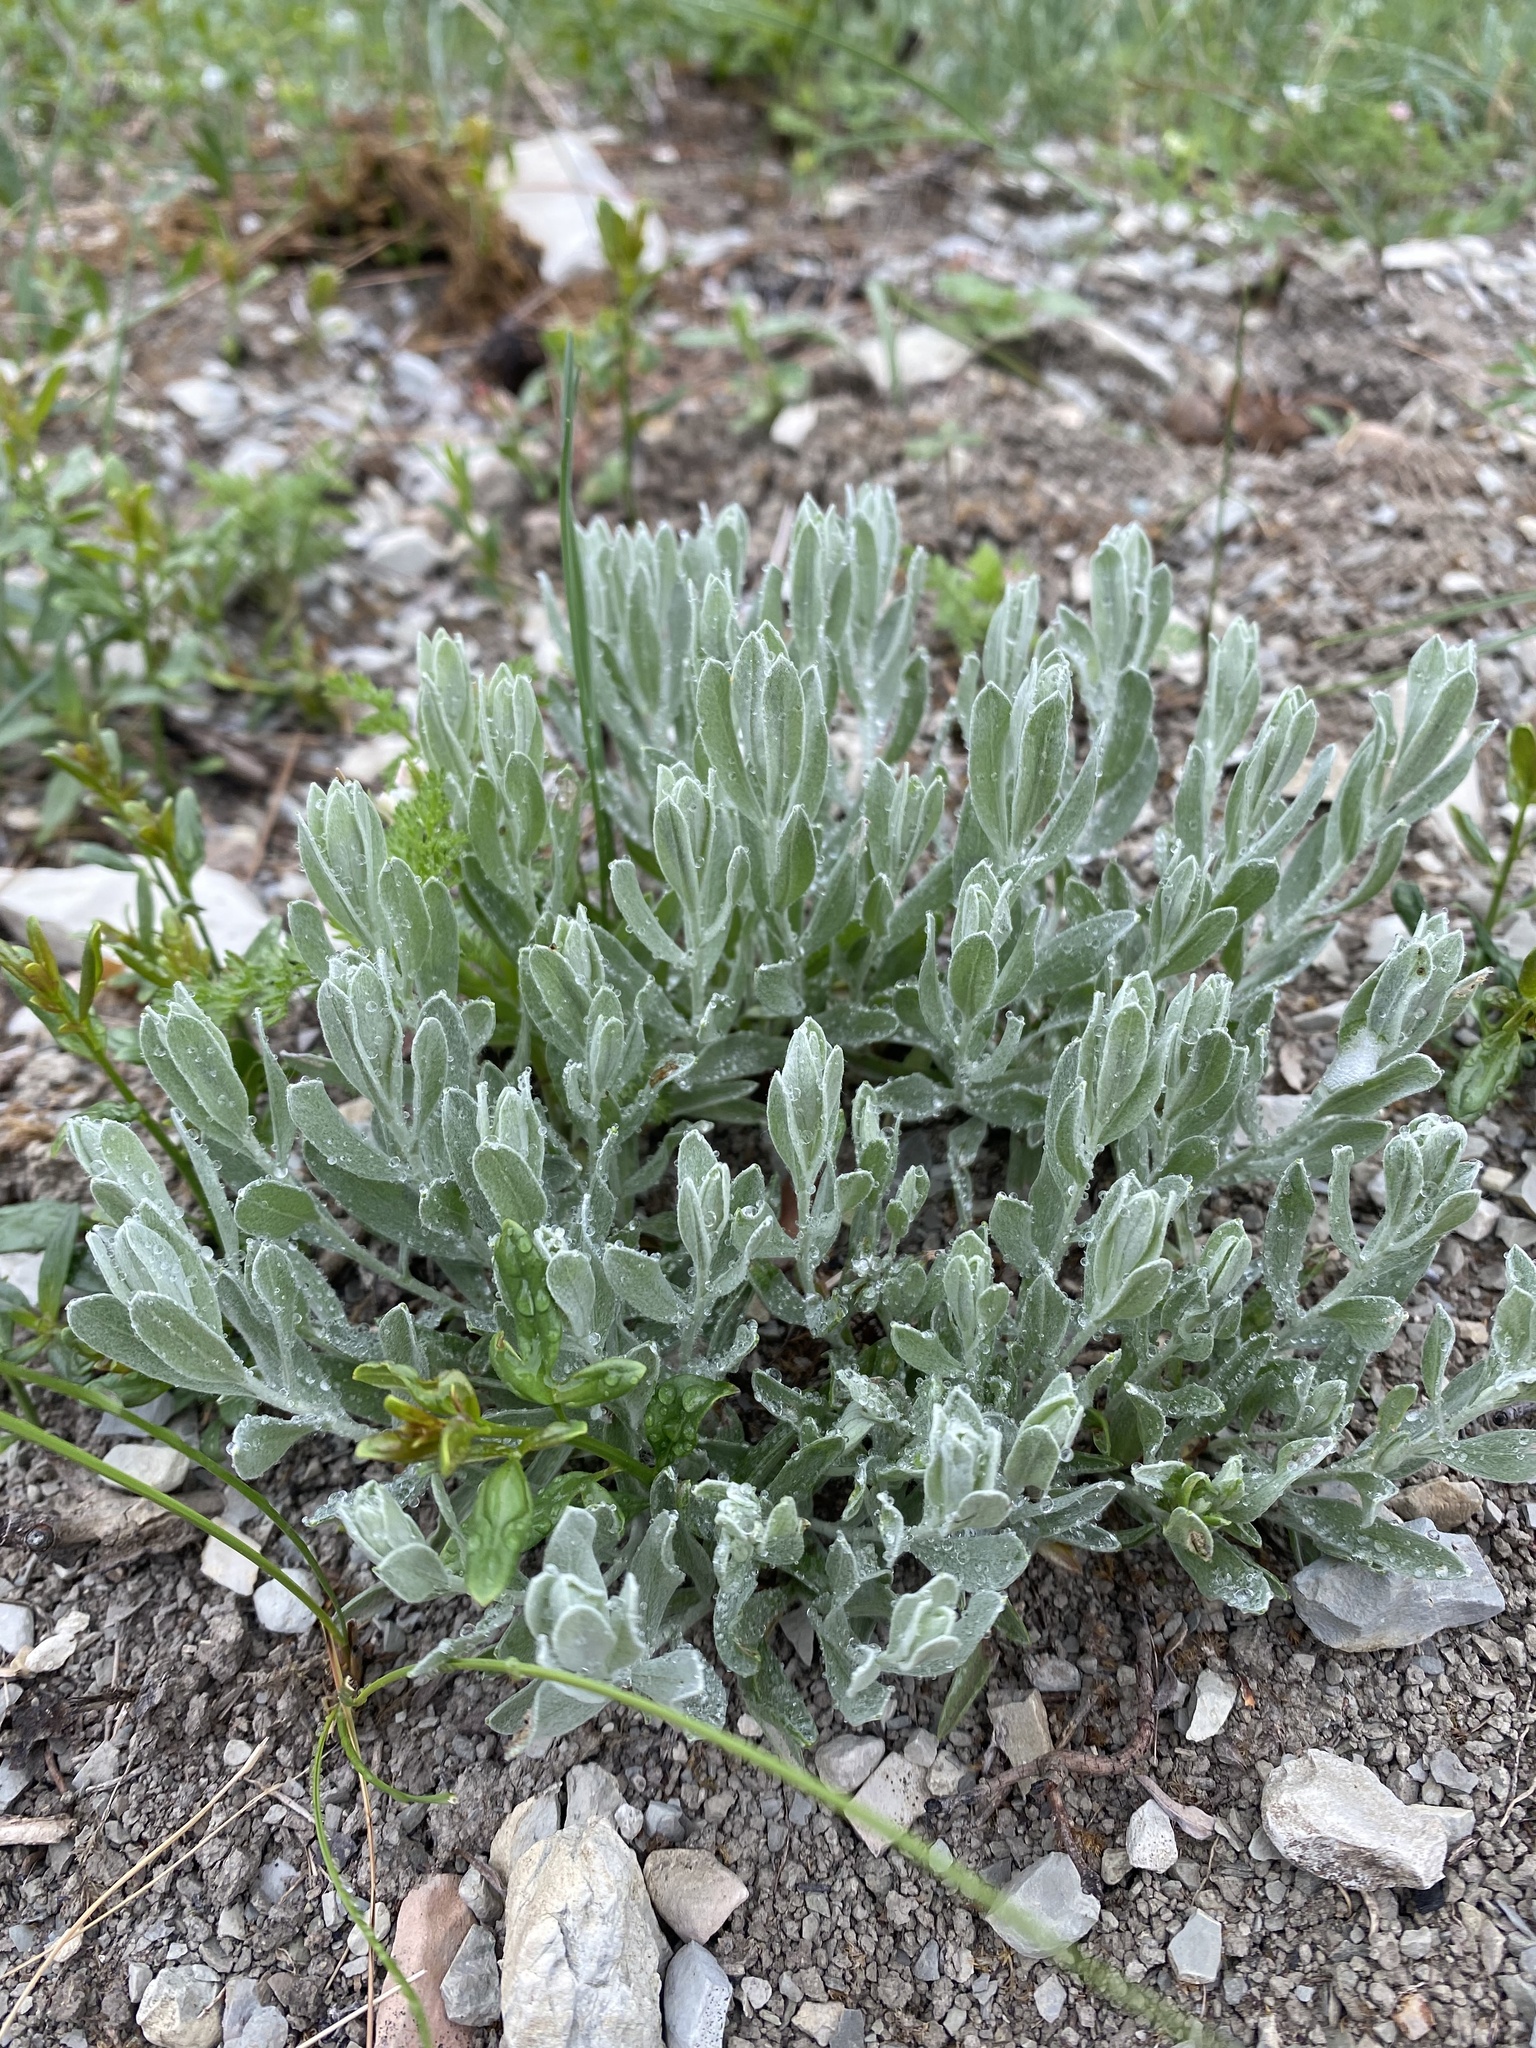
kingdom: Plantae
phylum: Tracheophyta
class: Magnoliopsida
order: Asterales
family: Asteraceae
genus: Galatella
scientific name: Galatella villosa
